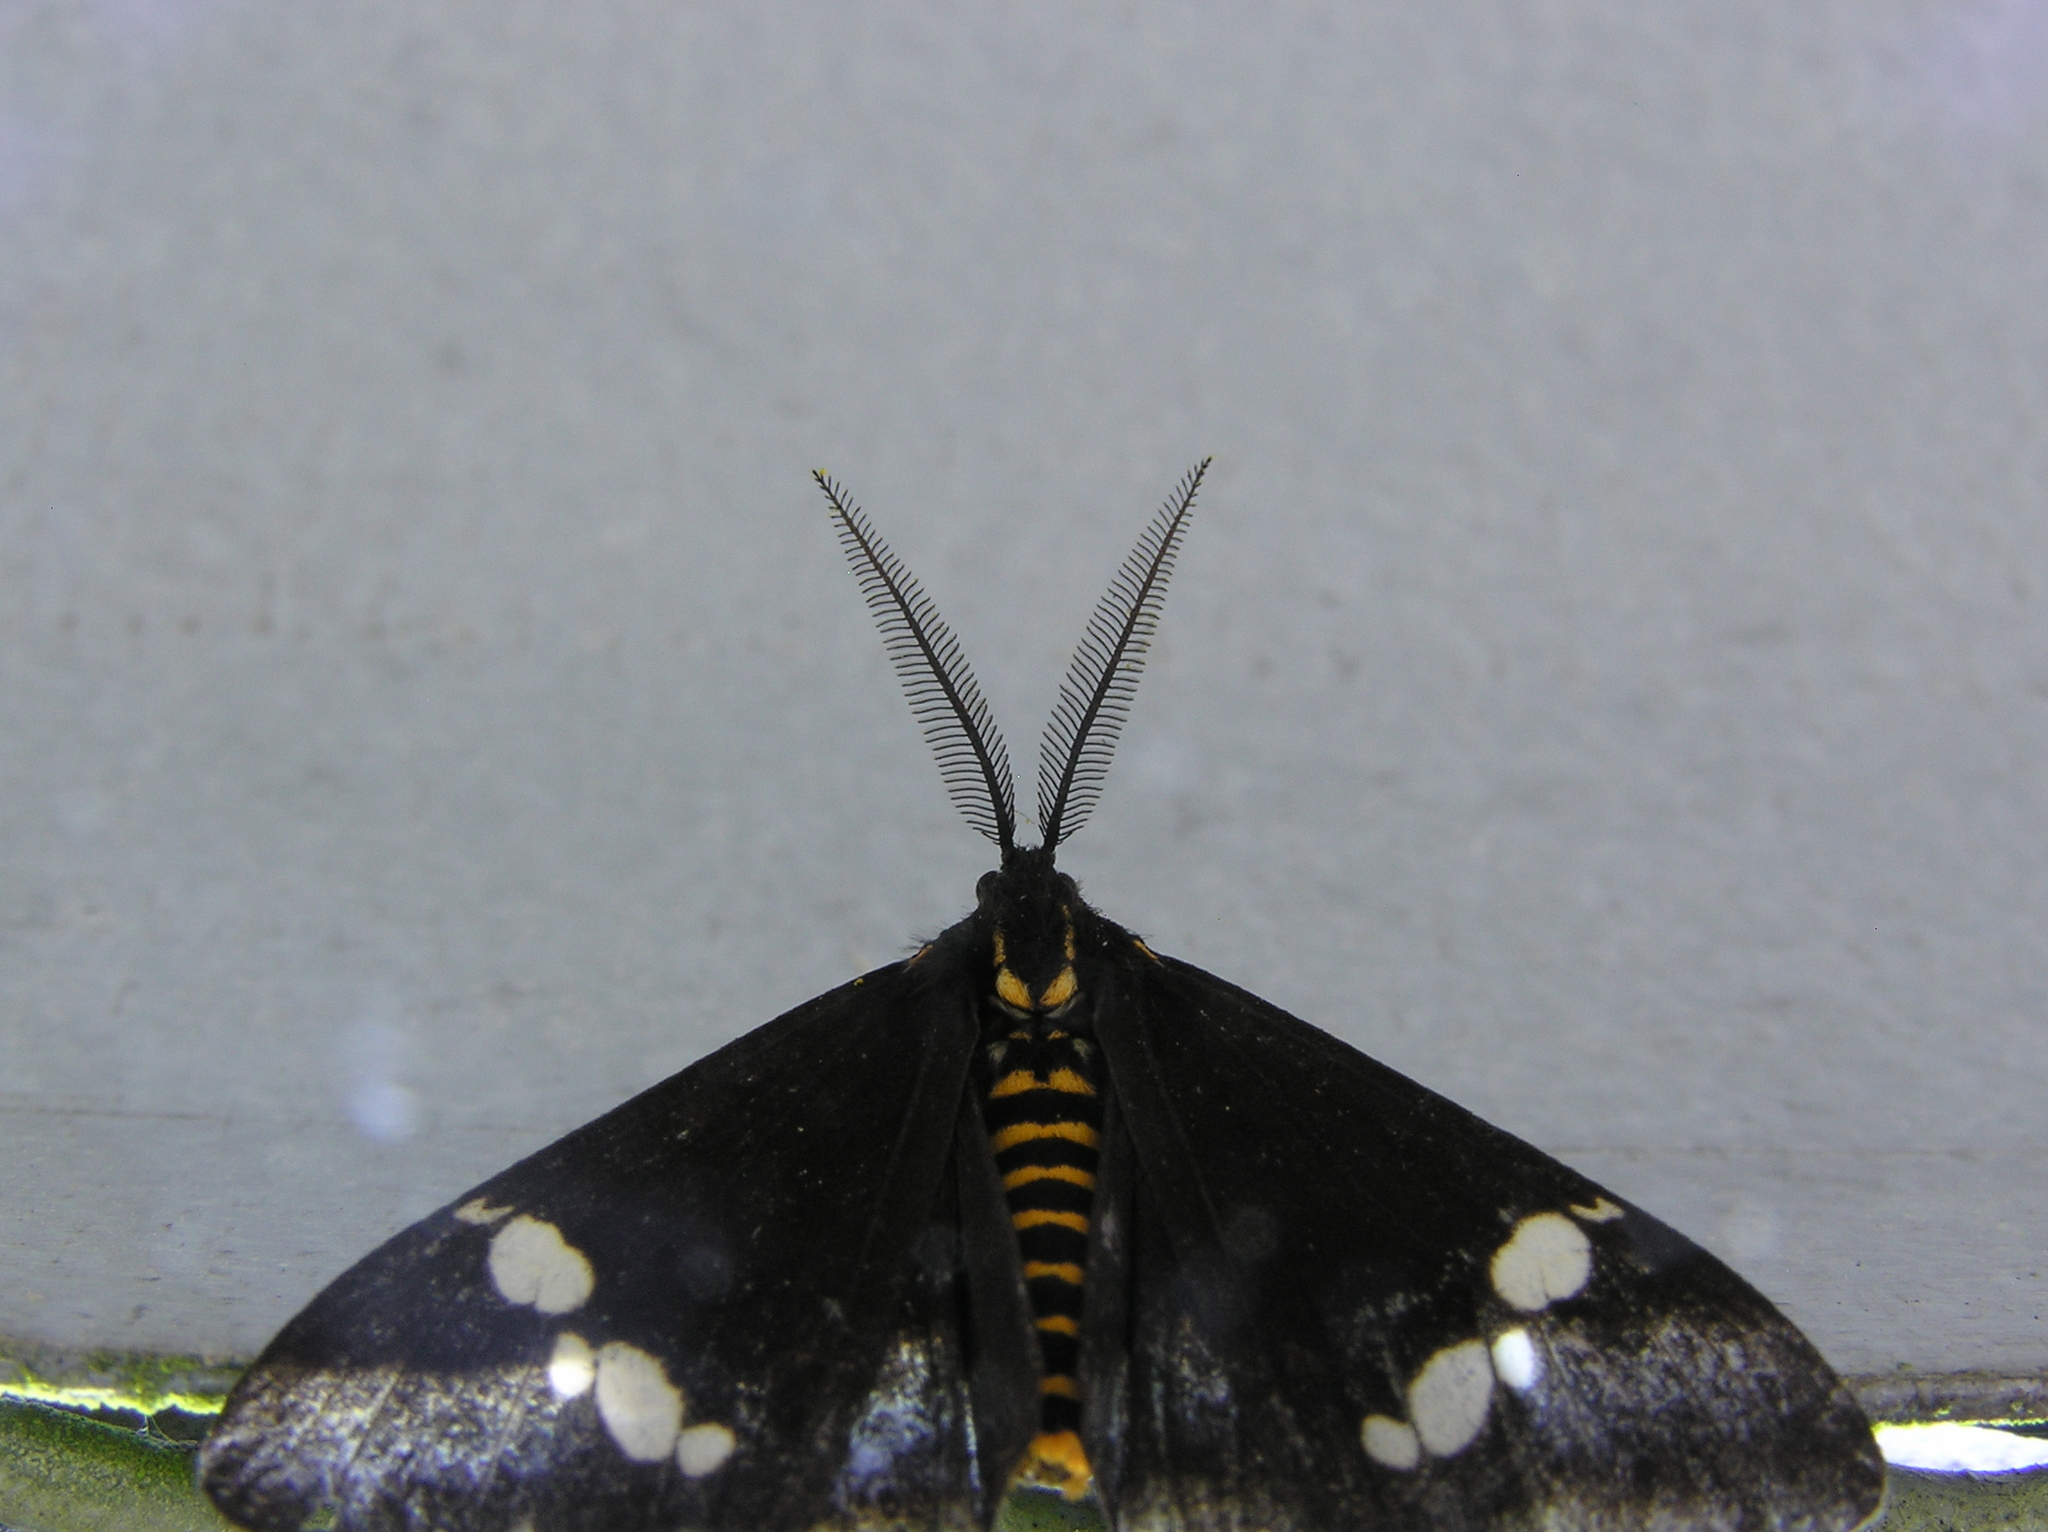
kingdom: Animalia
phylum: Arthropoda
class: Insecta
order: Lepidoptera
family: Erebidae
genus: Nyctemera
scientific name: Nyctemera annulatum
